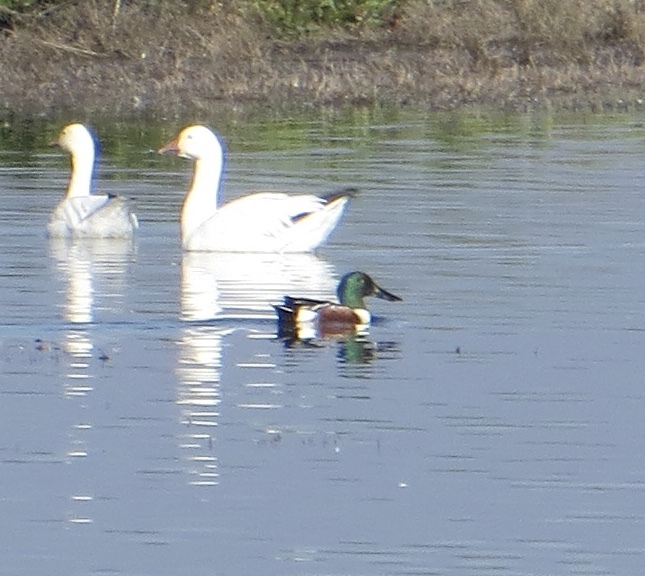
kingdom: Animalia
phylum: Chordata
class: Aves
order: Anseriformes
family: Anatidae
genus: Spatula
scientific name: Spatula clypeata
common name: Northern shoveler
